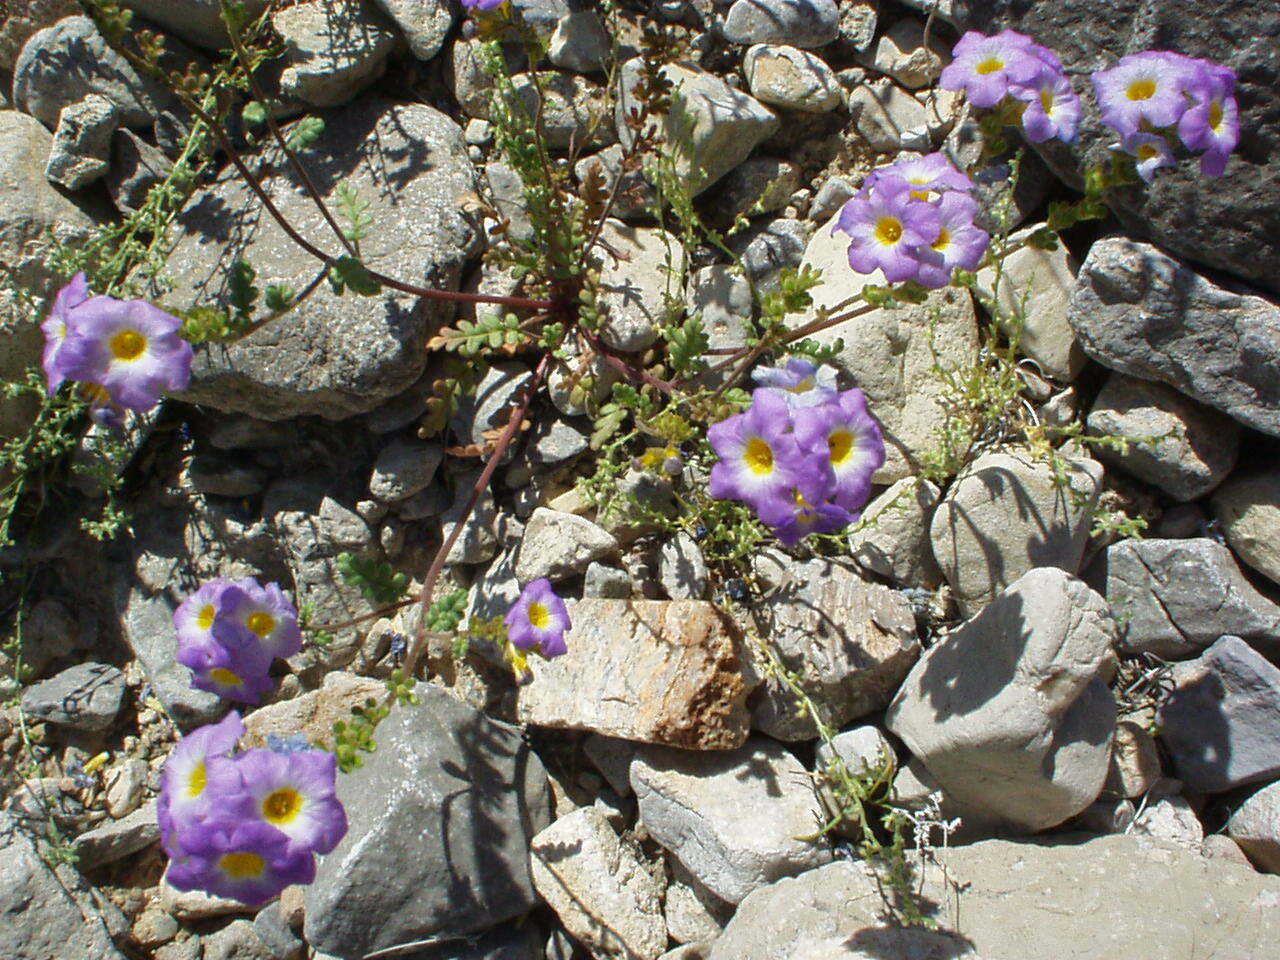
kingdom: Plantae
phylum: Tracheophyta
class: Magnoliopsida
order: Boraginales
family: Hydrophyllaceae
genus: Phacelia
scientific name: Phacelia fremontii
